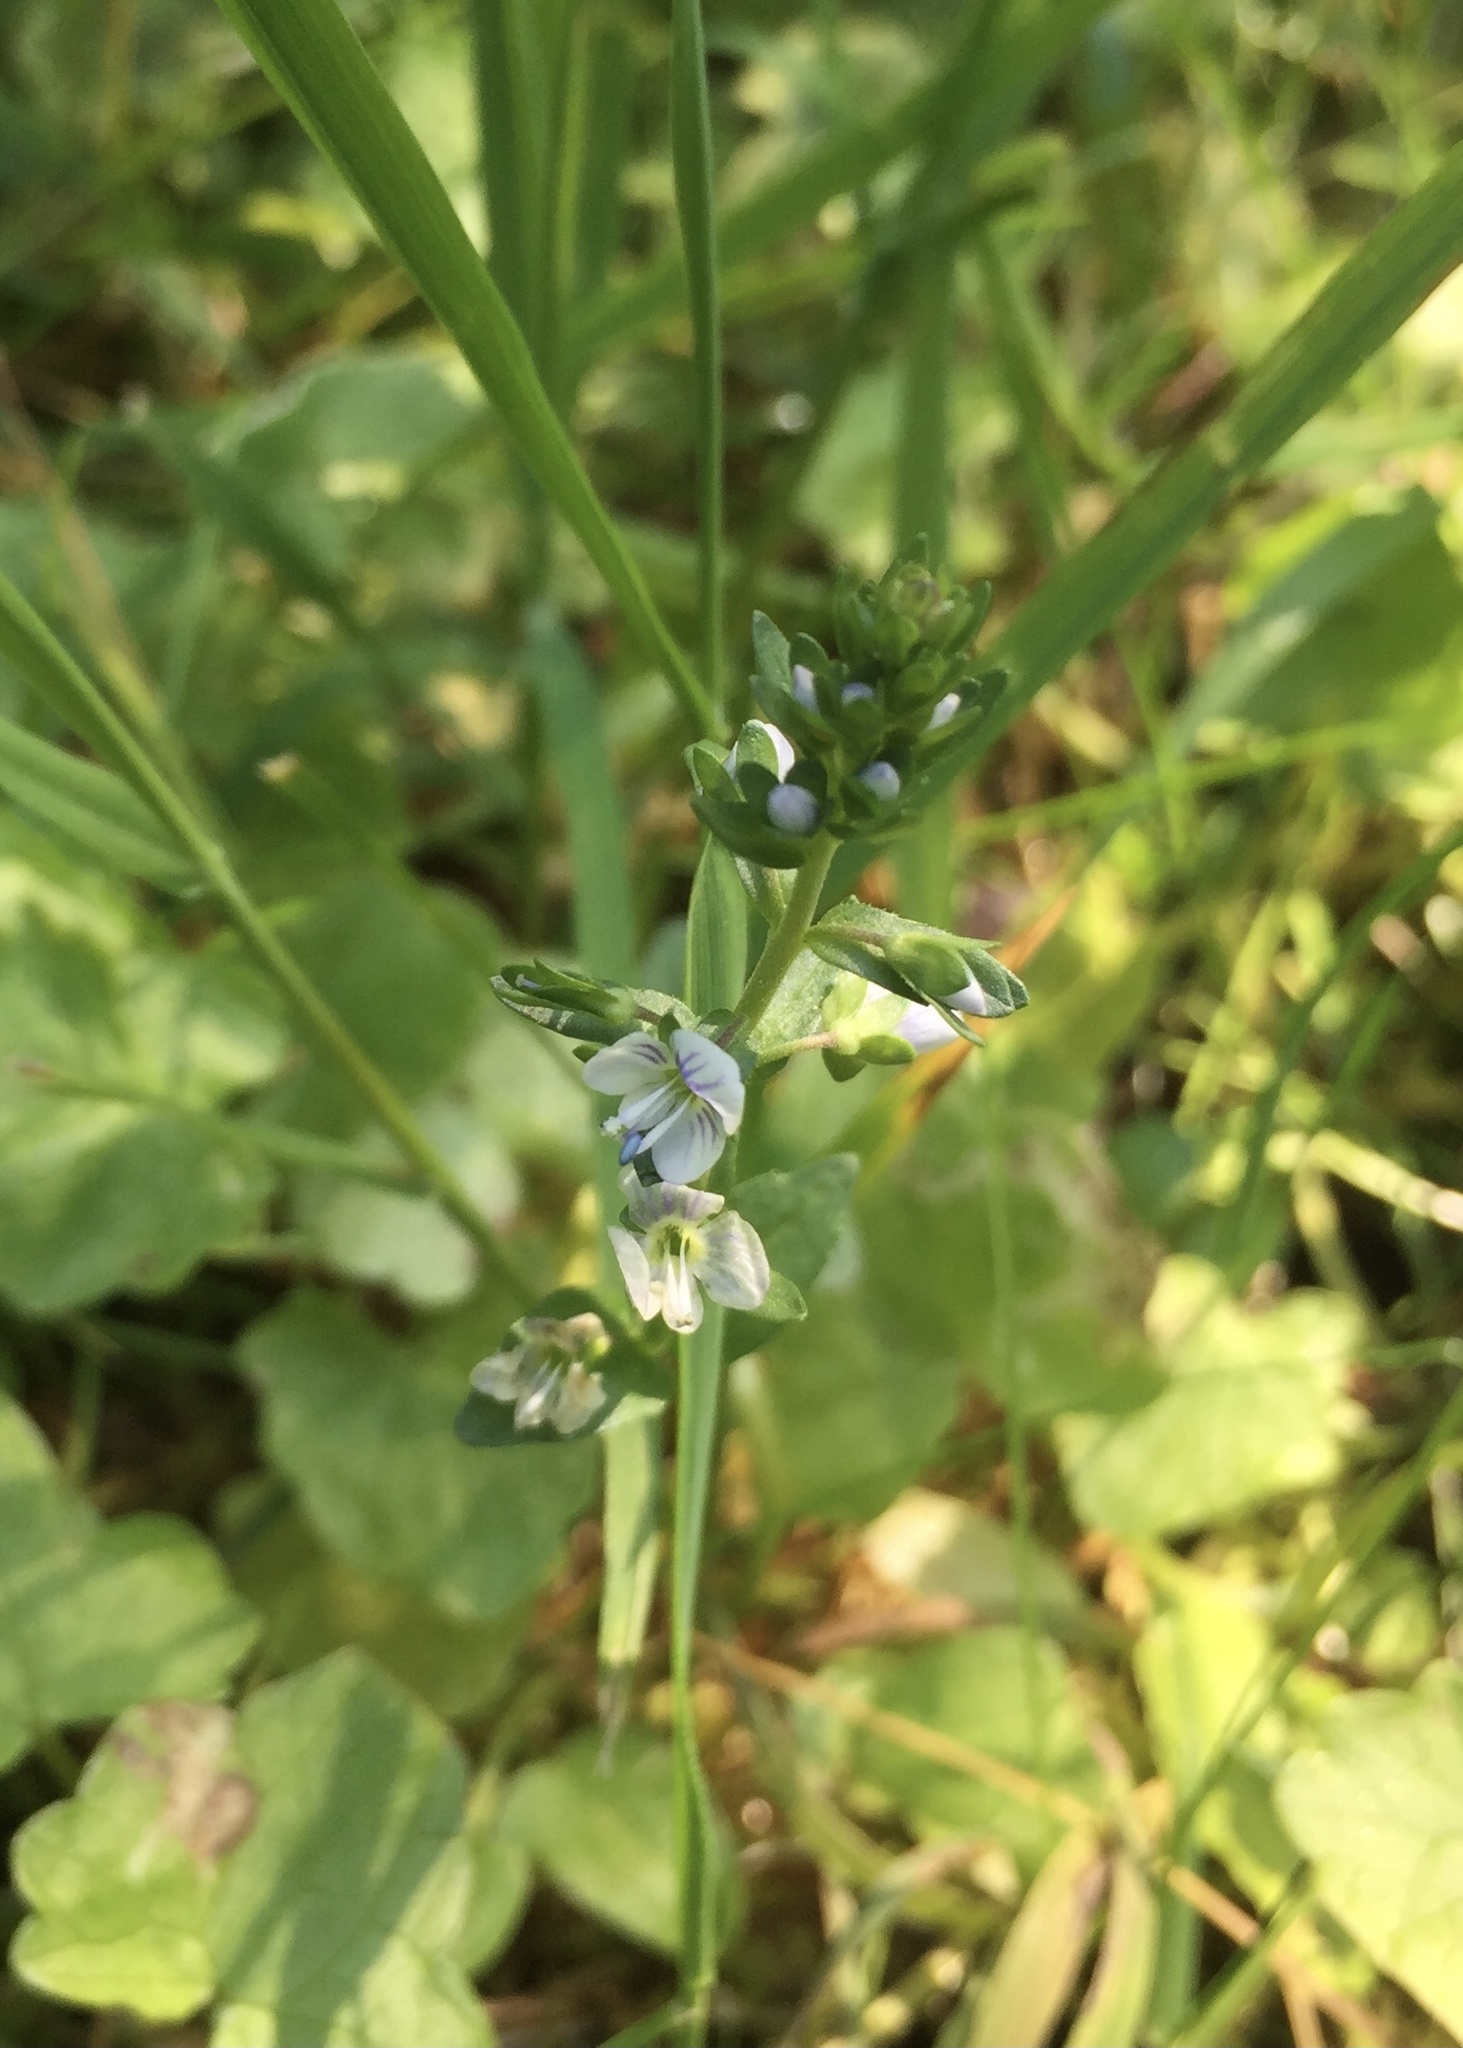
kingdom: Plantae
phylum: Tracheophyta
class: Magnoliopsida
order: Lamiales
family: Plantaginaceae
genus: Veronica
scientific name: Veronica serpyllifolia
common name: Thyme-leaved speedwell
